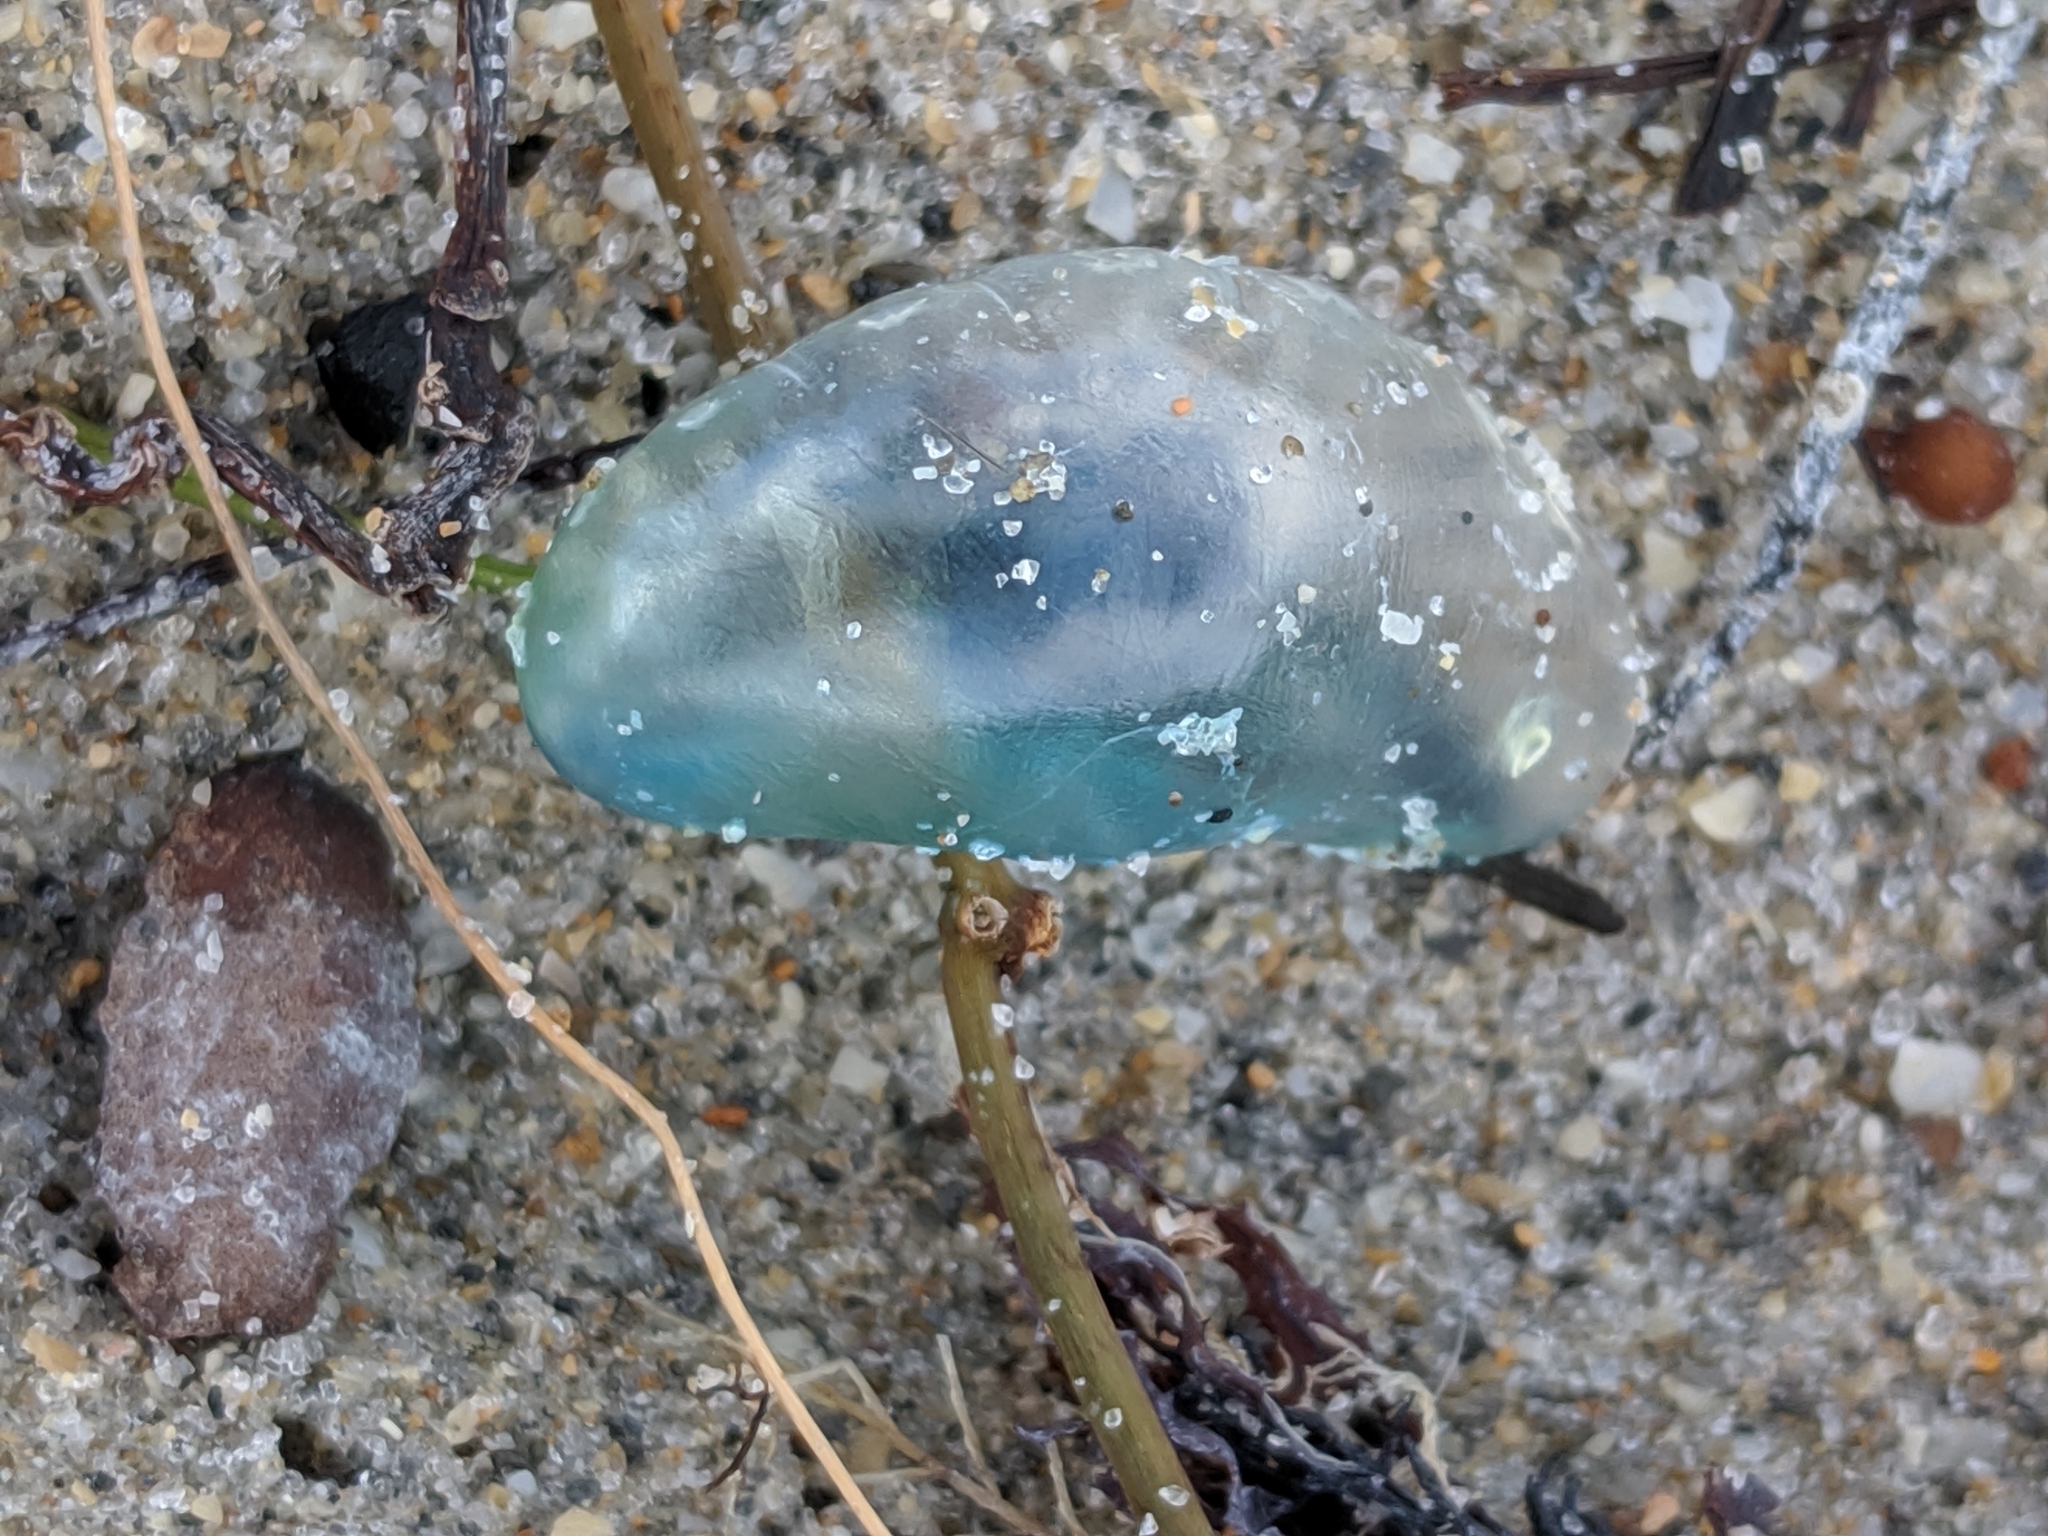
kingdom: Animalia
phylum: Cnidaria
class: Hydrozoa
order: Siphonophorae
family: Physaliidae
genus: Physalia
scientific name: Physalia physalis
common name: Portuguese man-of-war
